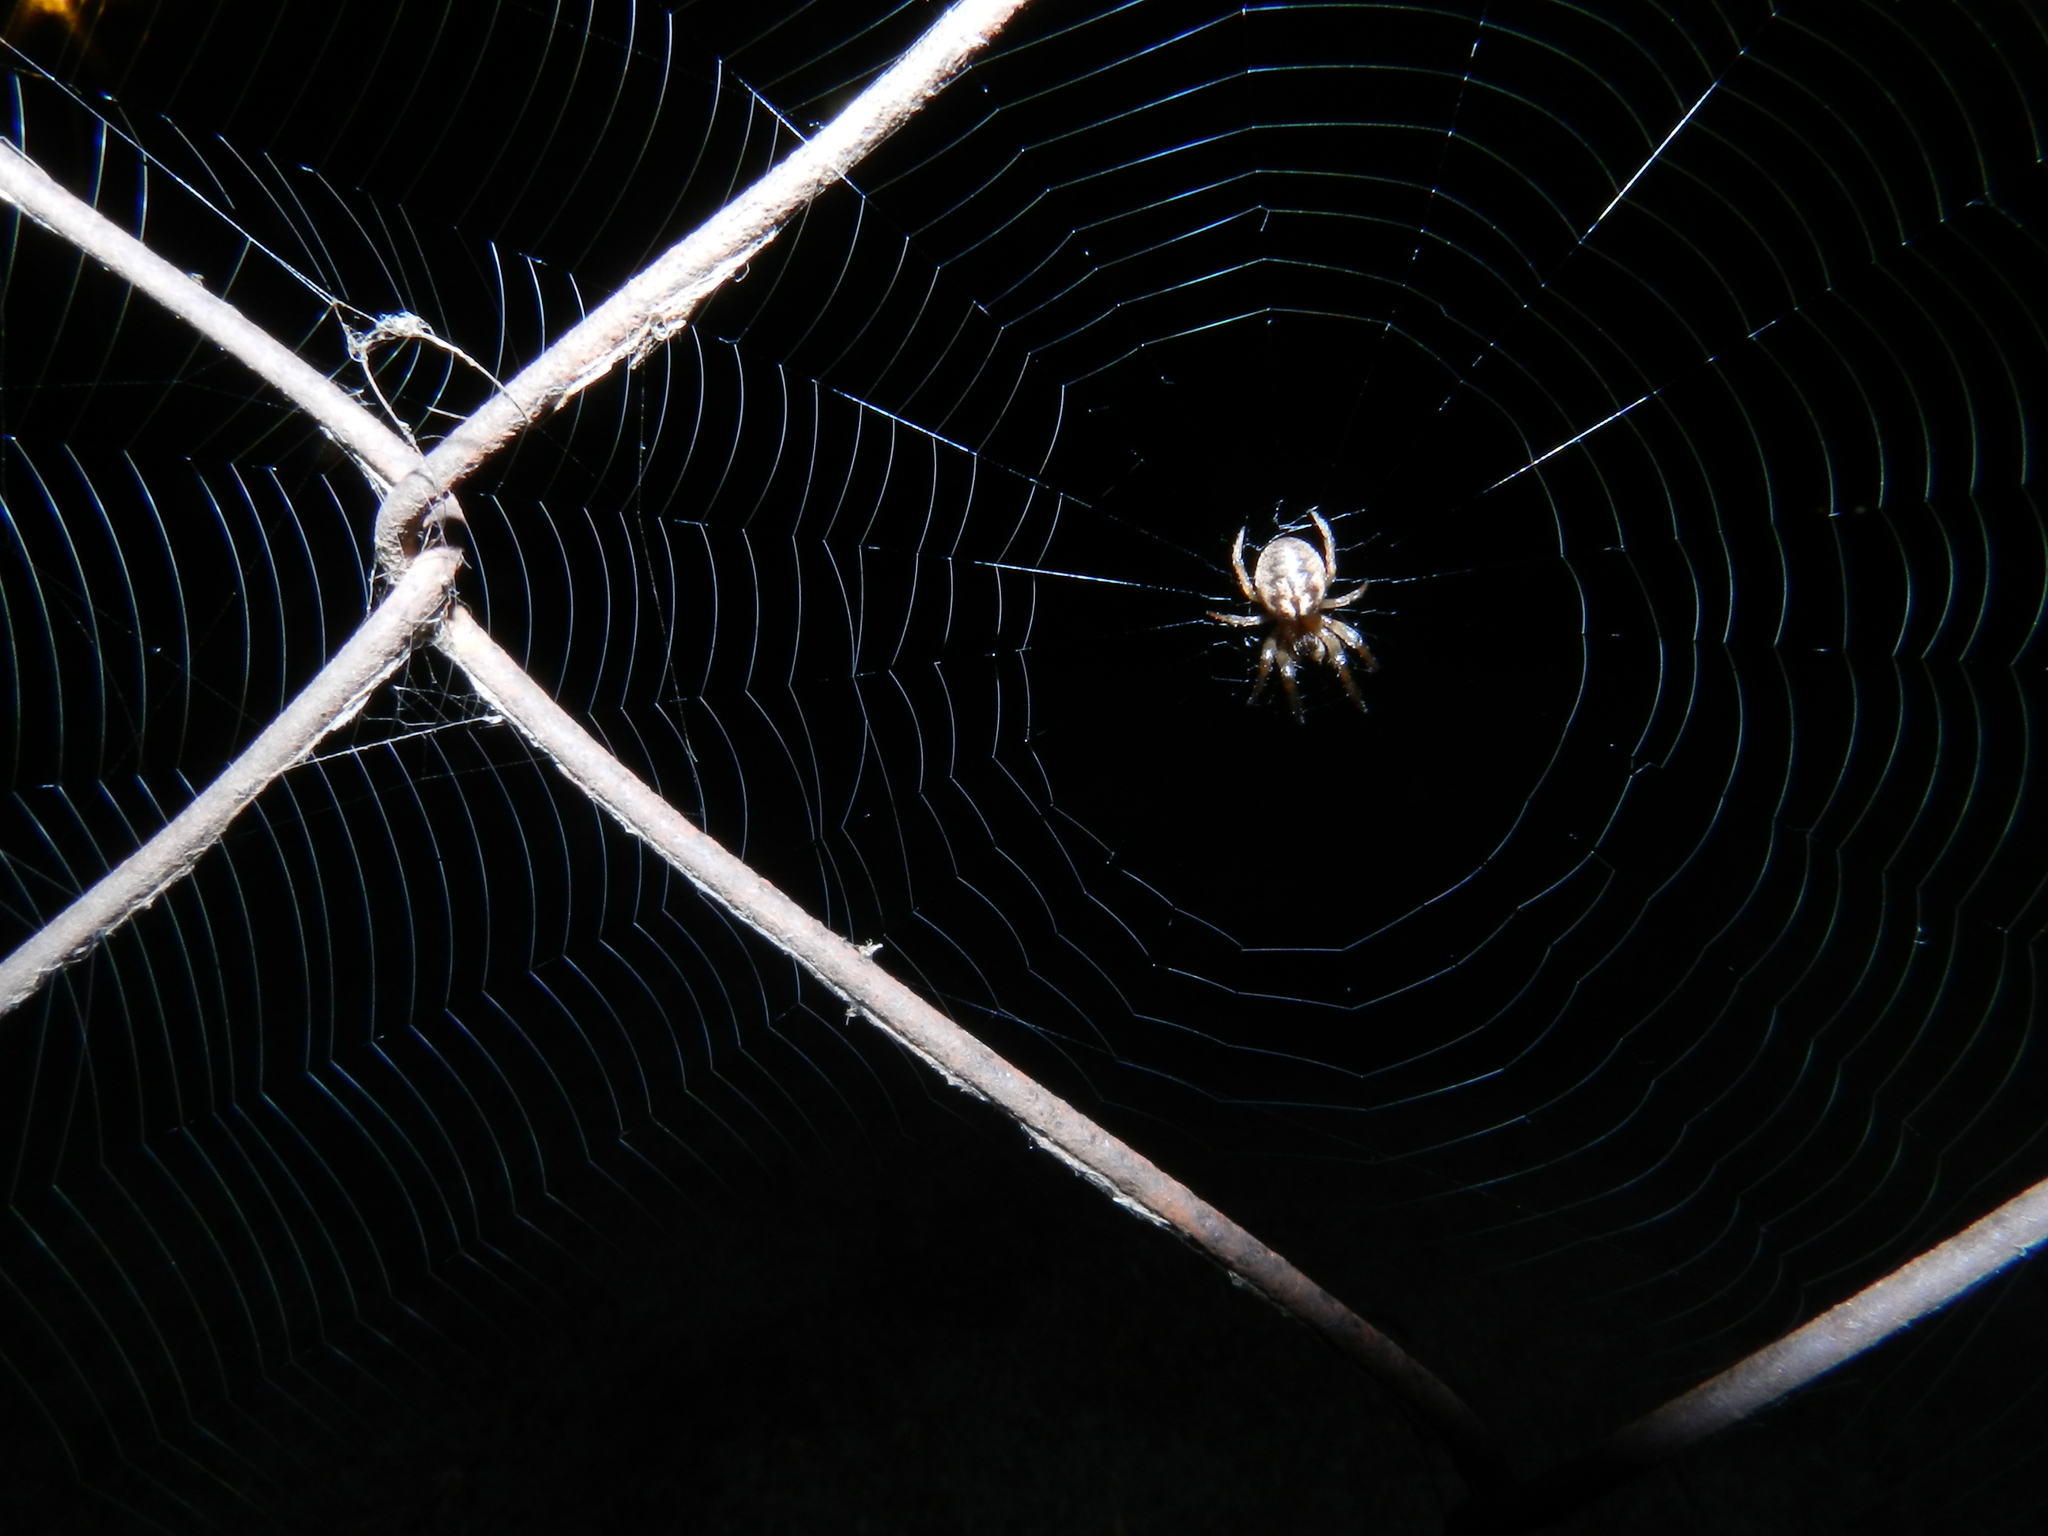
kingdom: Animalia
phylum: Arthropoda
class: Arachnida
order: Araneae
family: Araneidae
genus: Metazygia
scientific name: Metazygia
